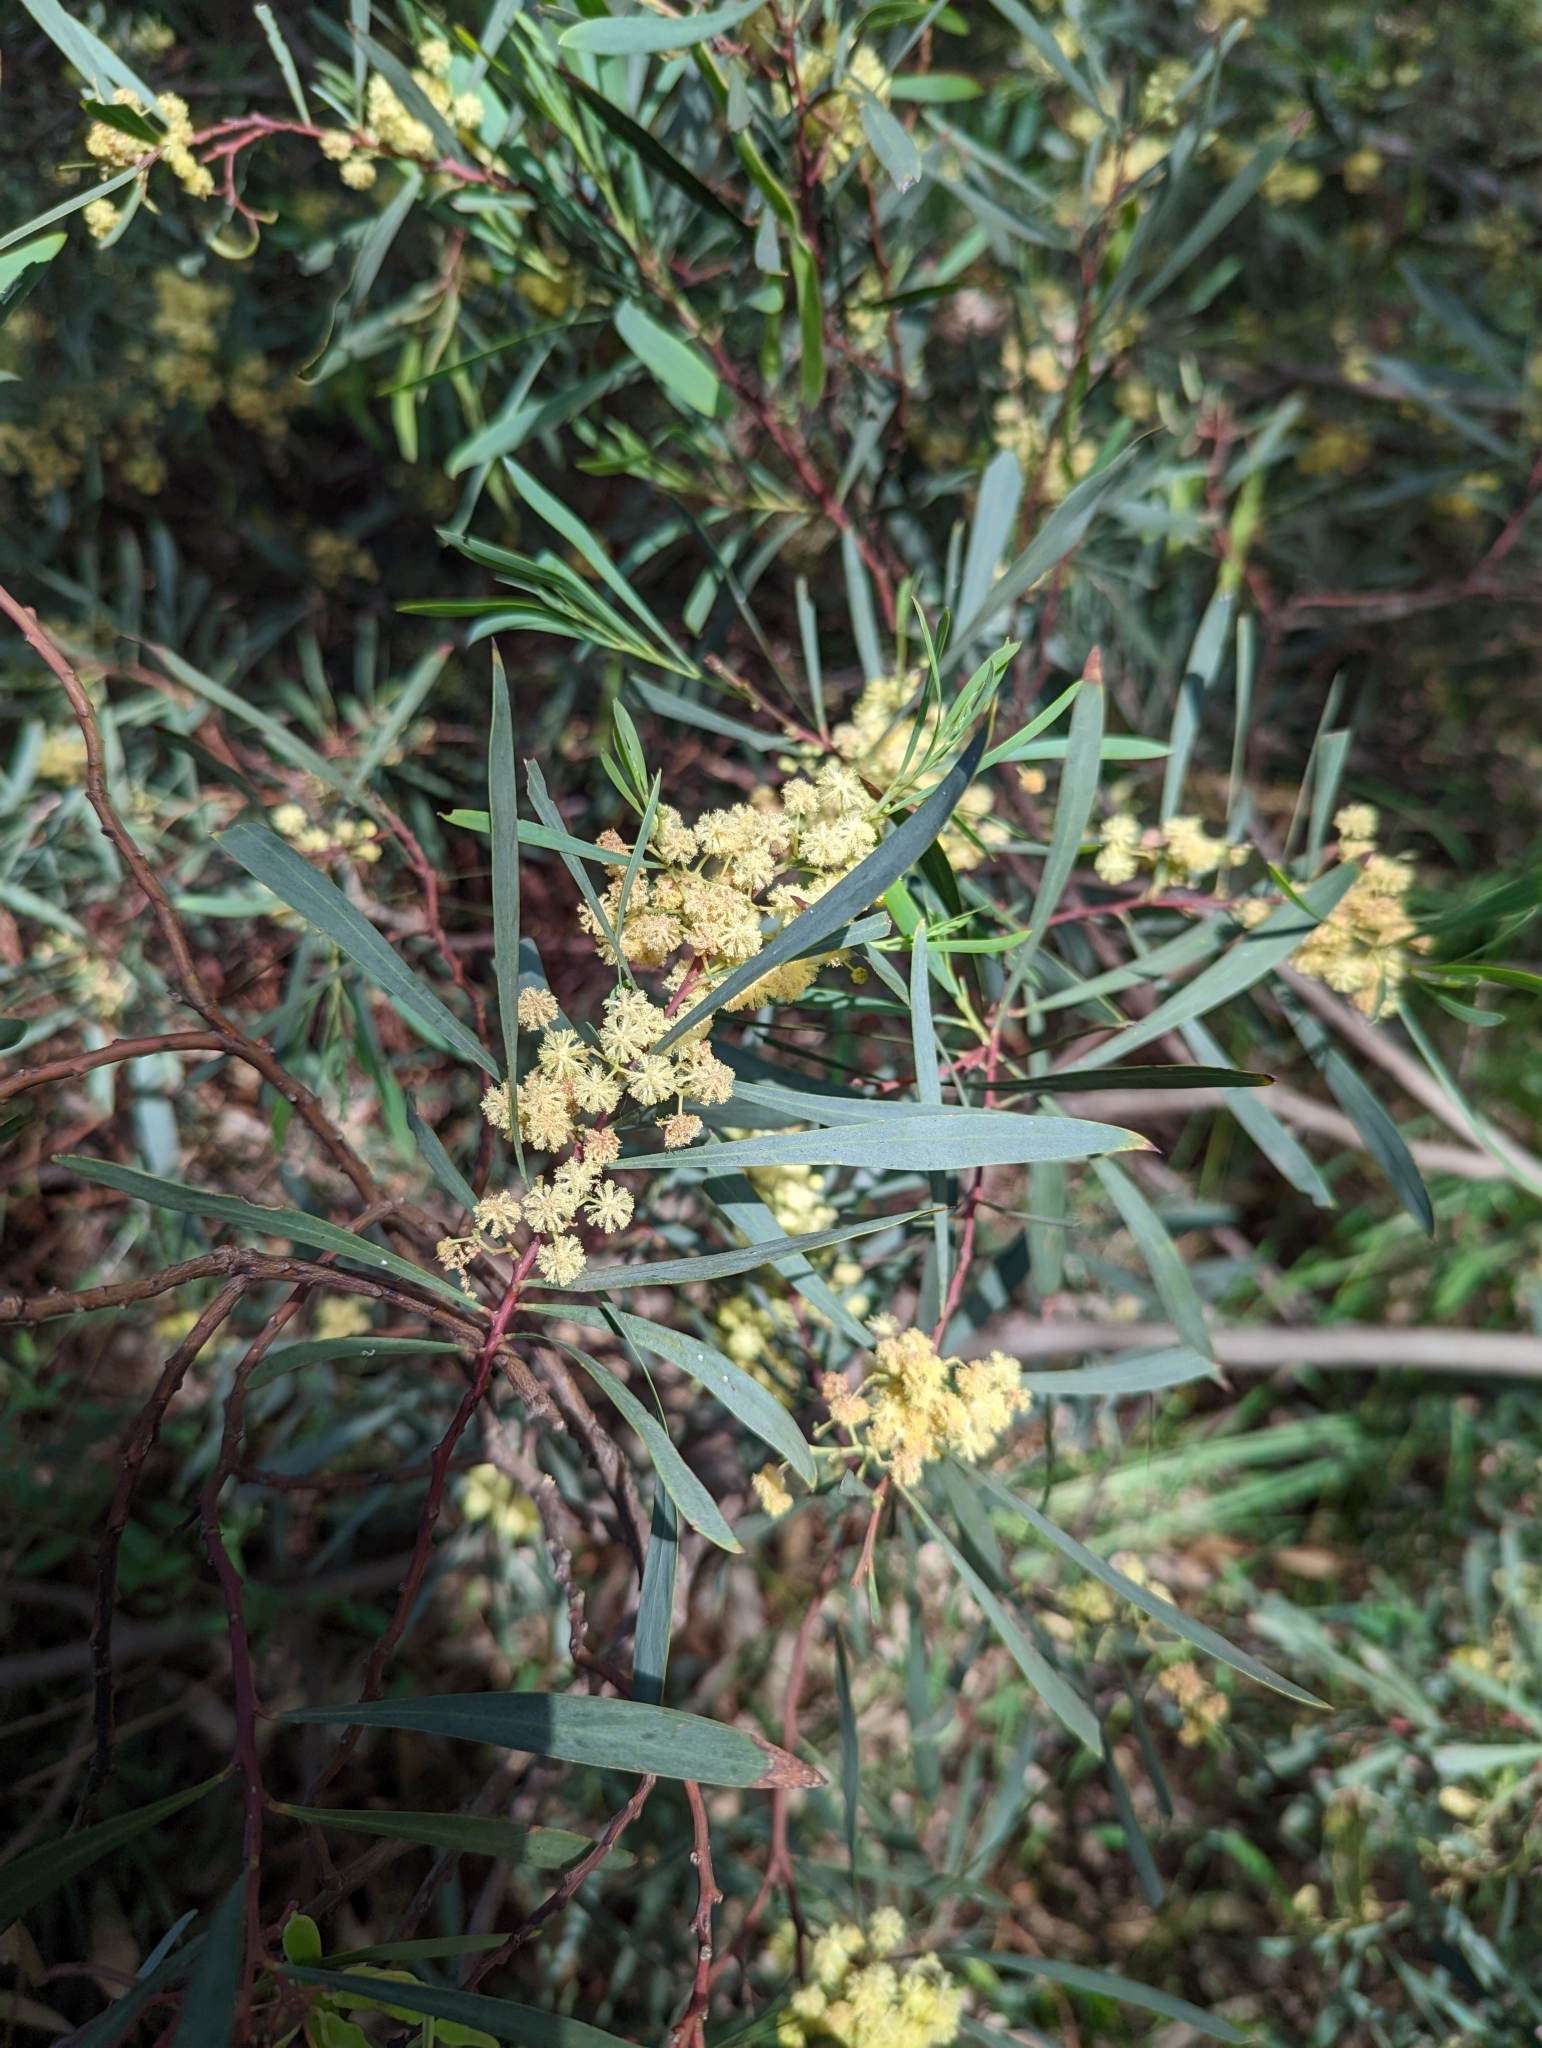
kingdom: Plantae
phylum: Tracheophyta
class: Magnoliopsida
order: Fabales
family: Fabaceae
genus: Acacia
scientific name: Acacia provincialis
